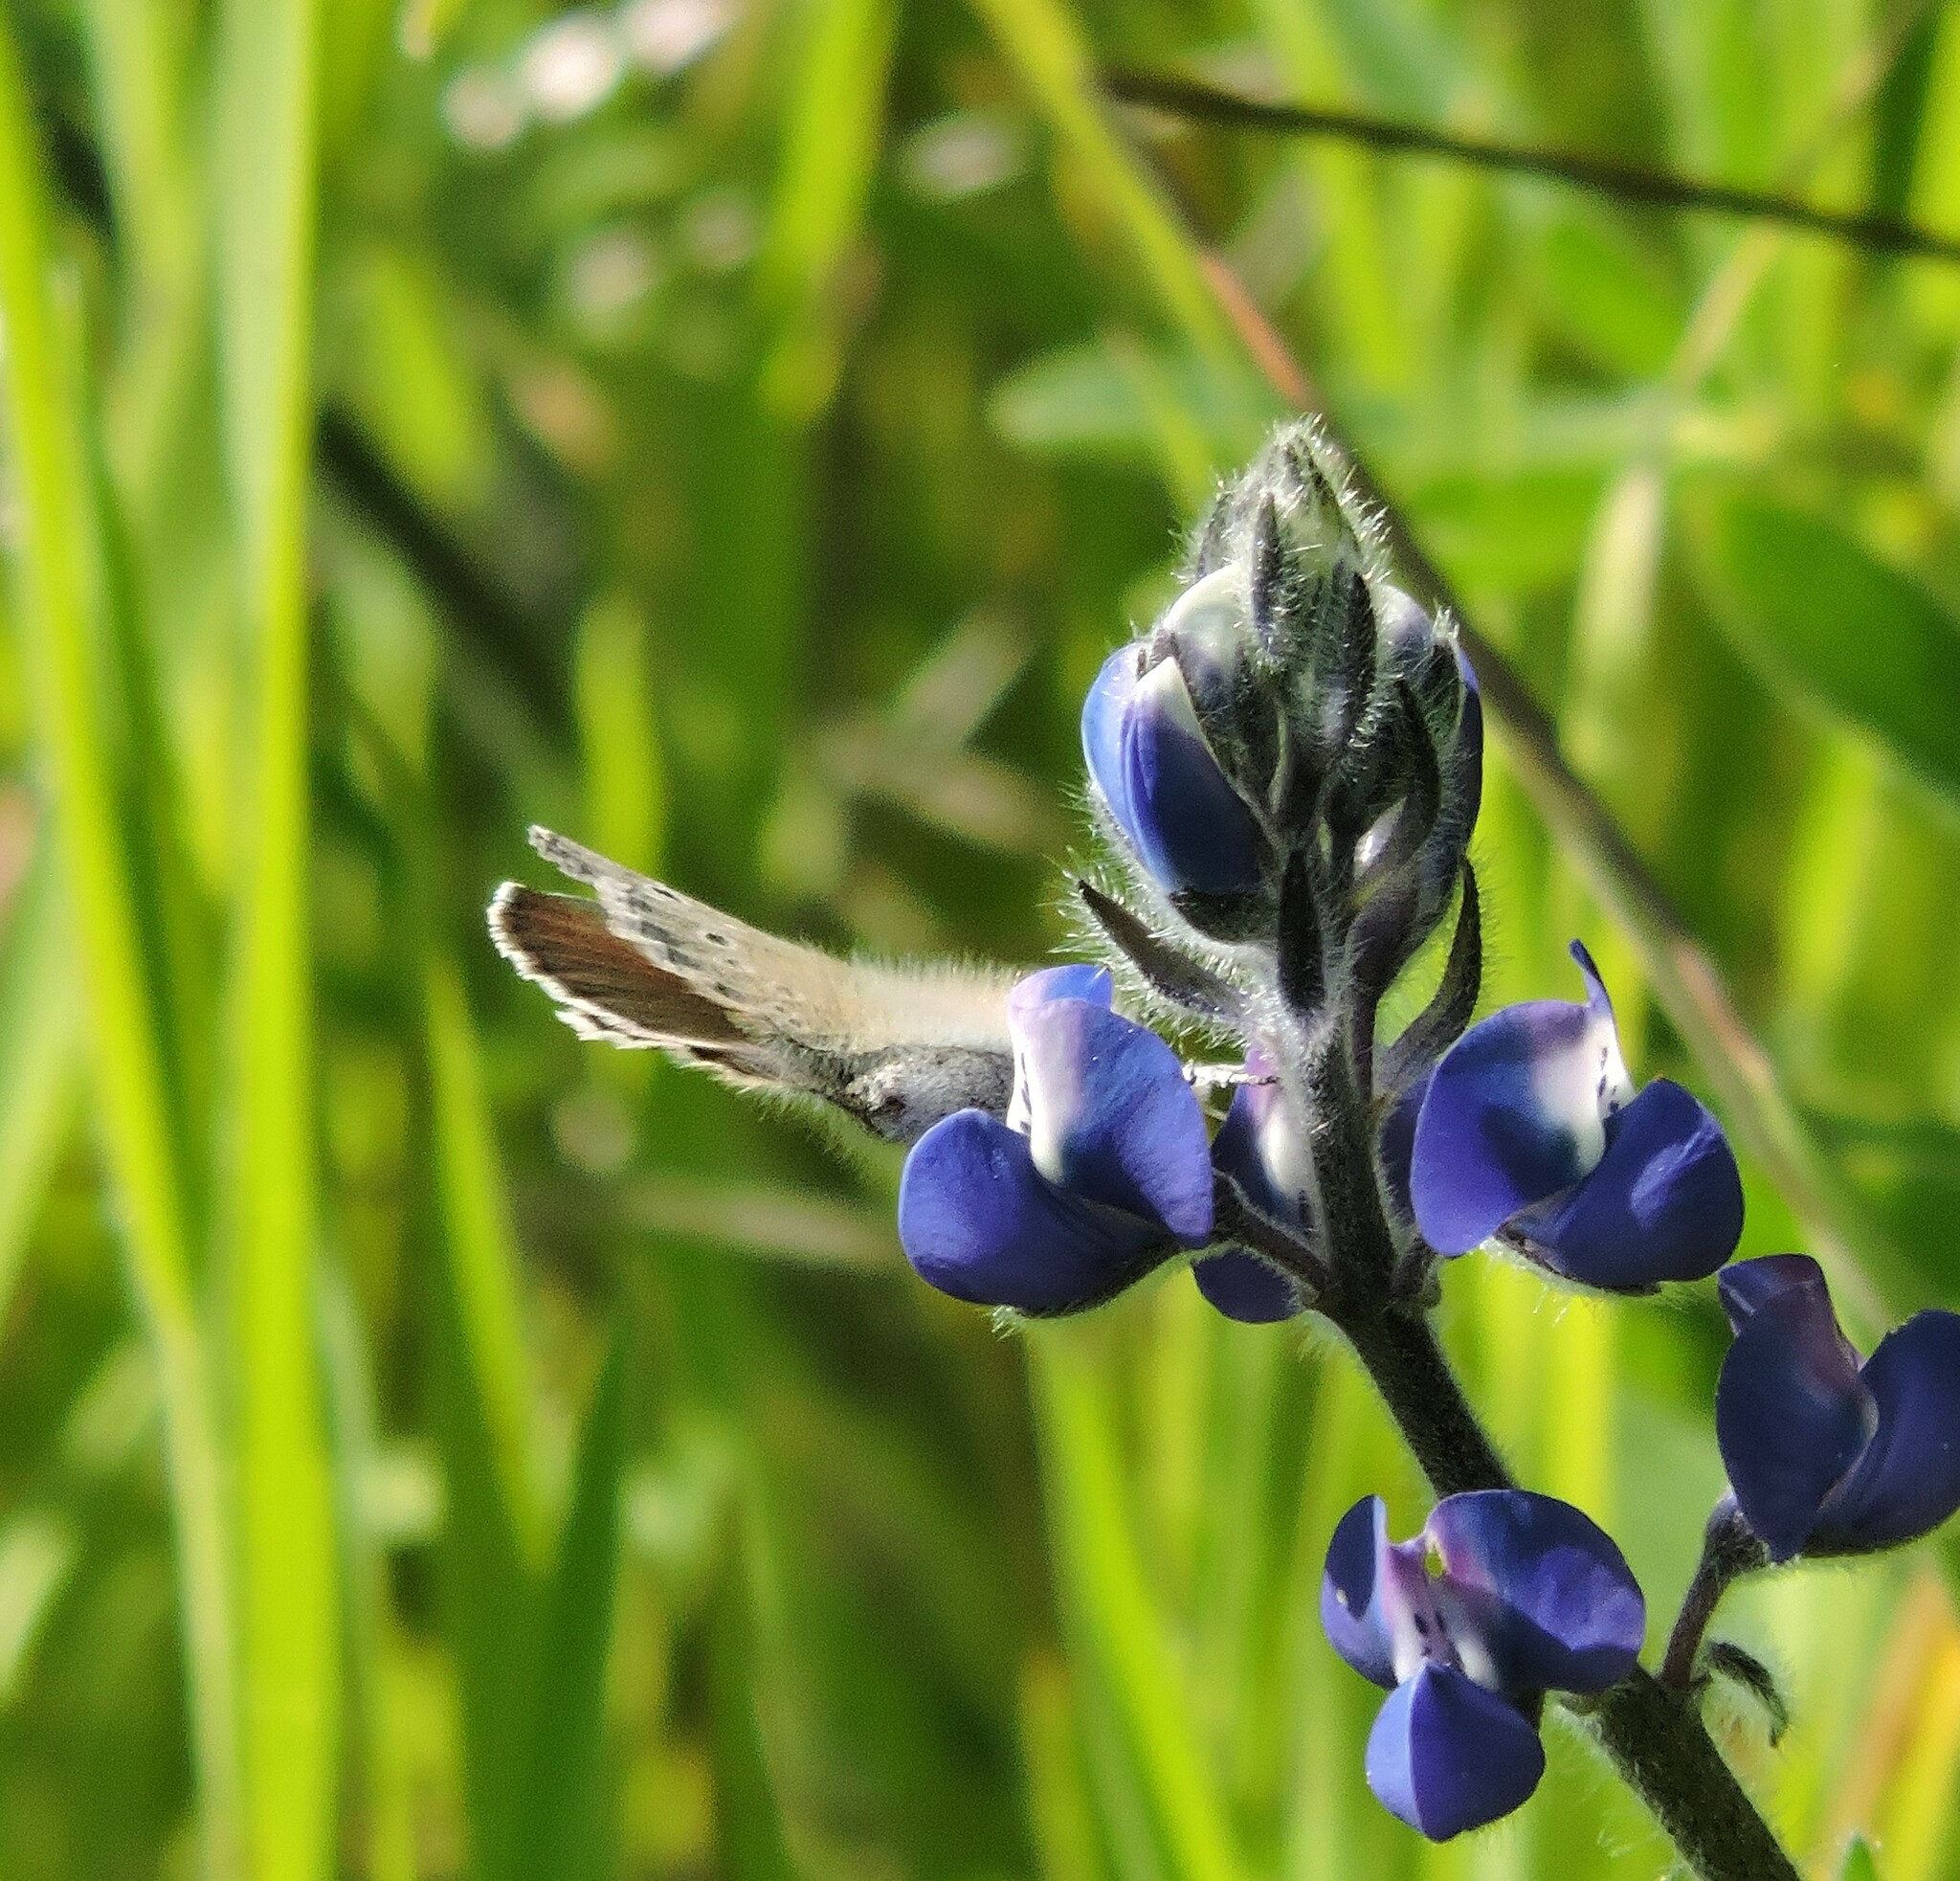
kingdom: Animalia
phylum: Arthropoda
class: Insecta
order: Lepidoptera
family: Lycaenidae
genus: Glaucopsyche
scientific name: Glaucopsyche lygdamus
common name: Silvery blue
